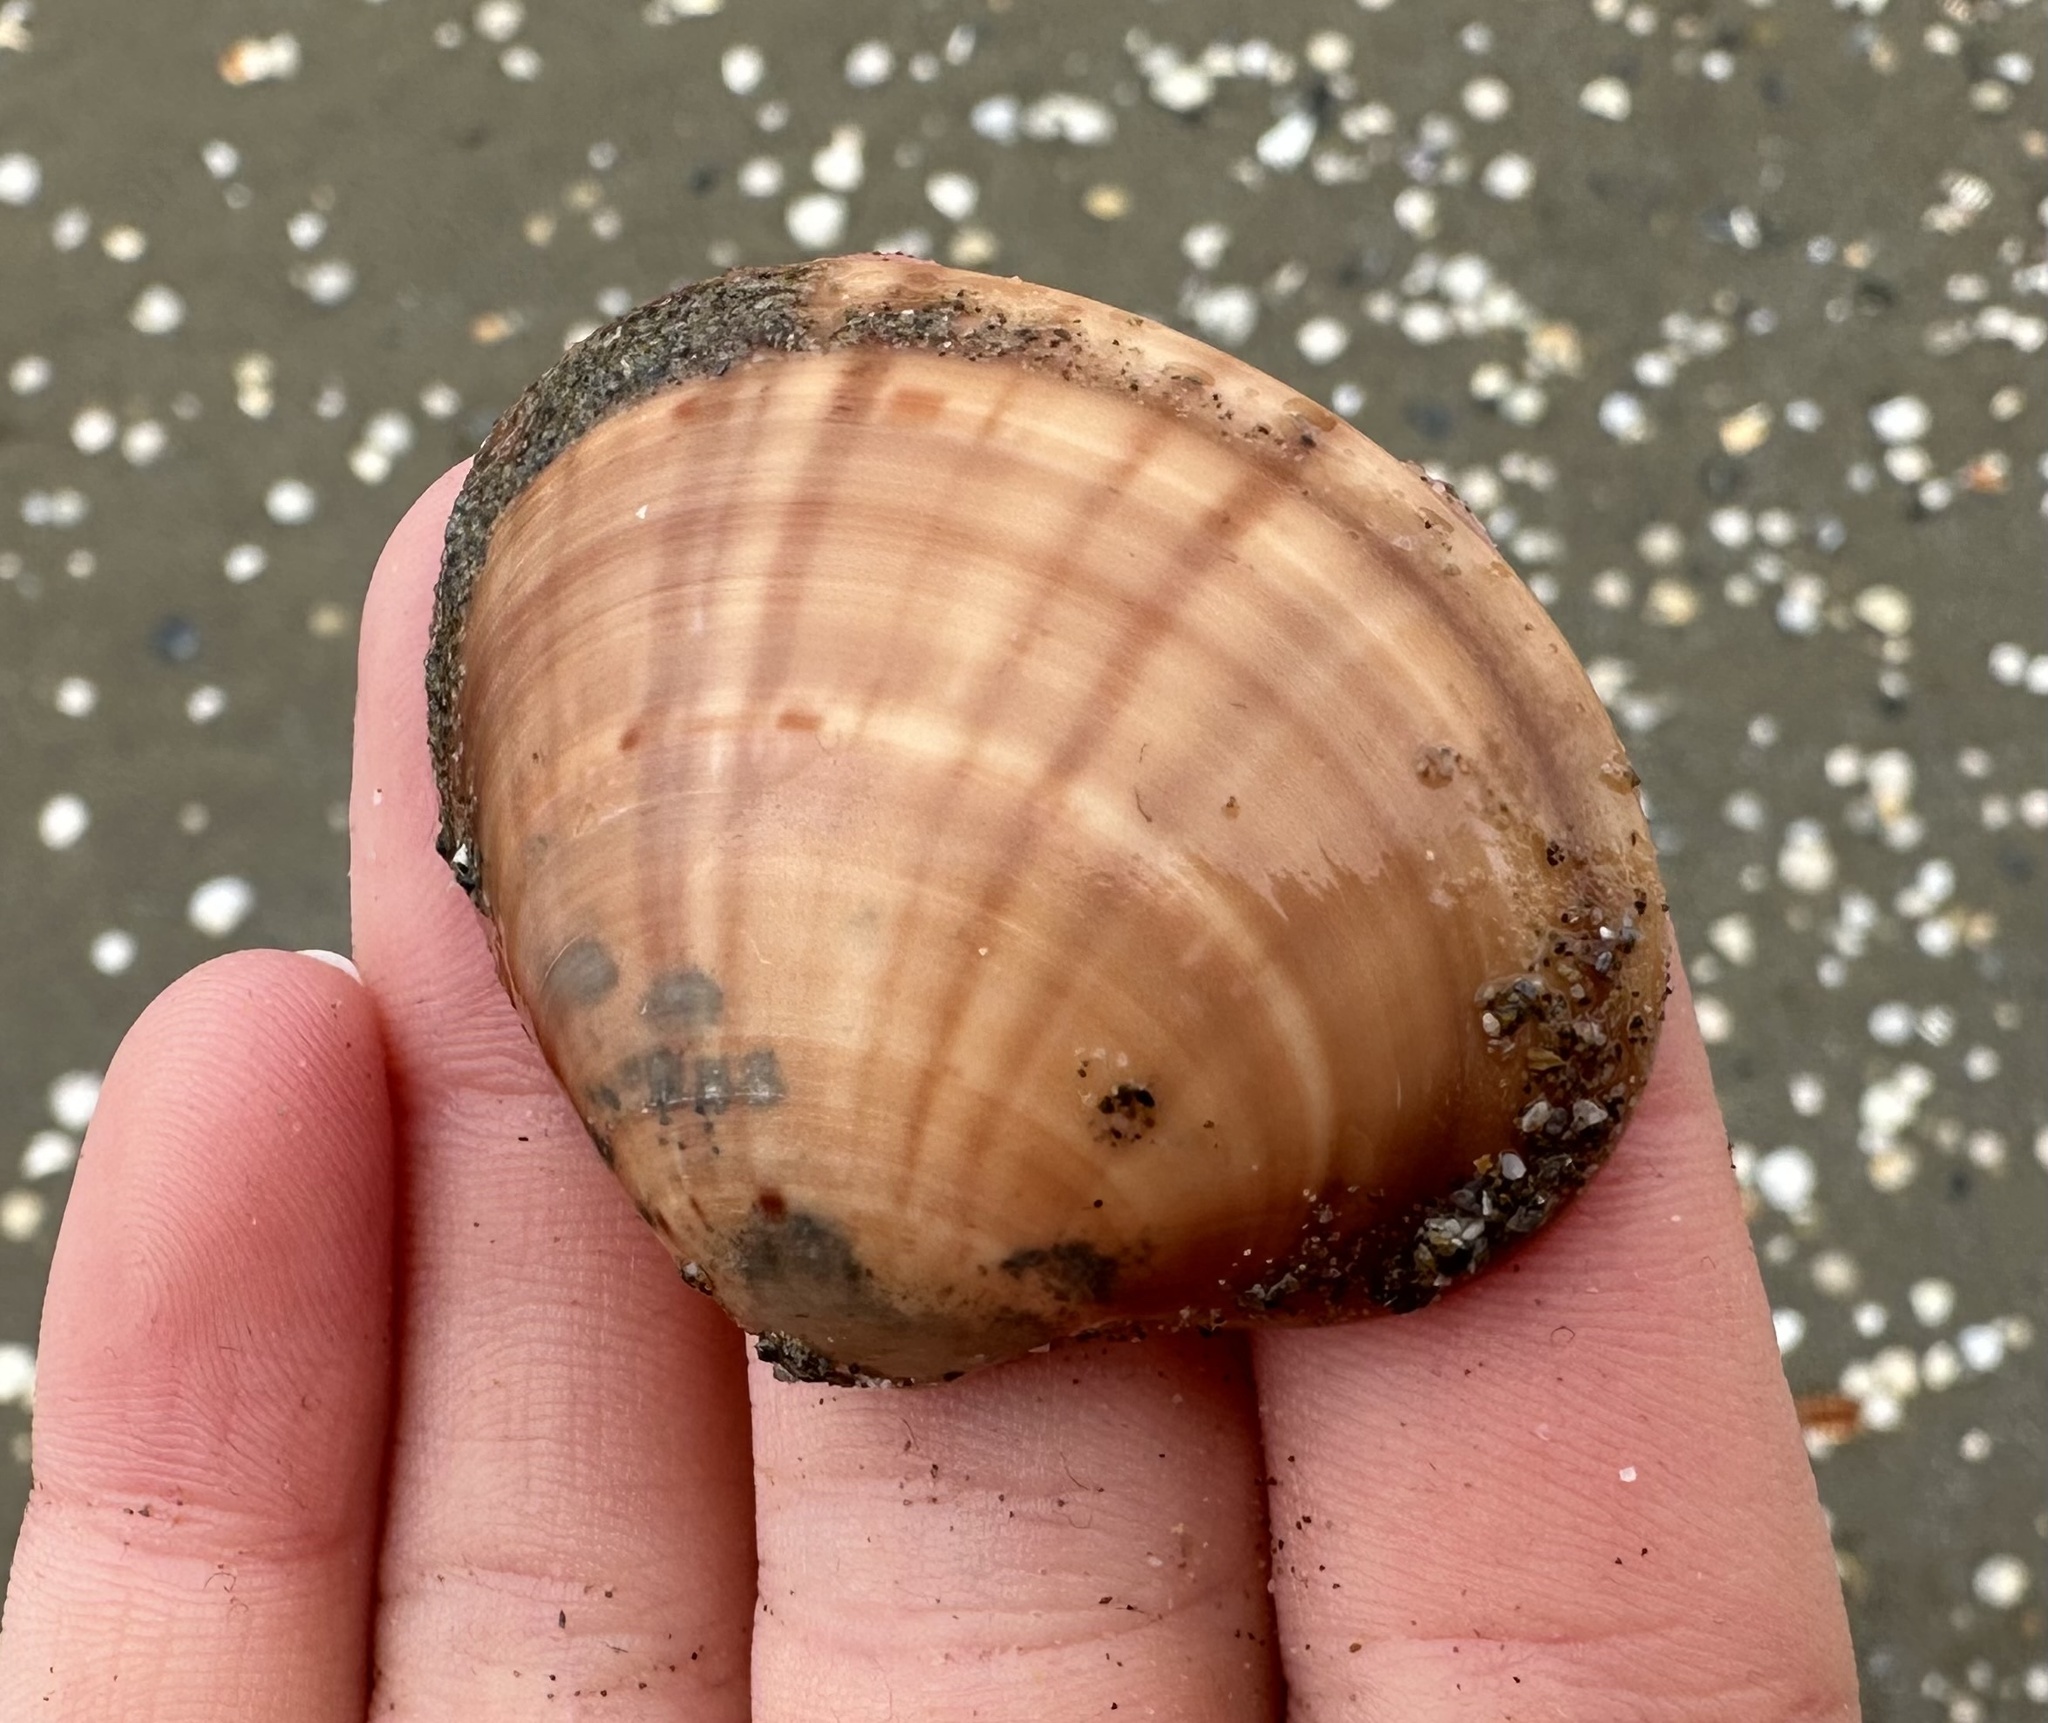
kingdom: Animalia
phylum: Mollusca
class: Bivalvia
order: Venerida
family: Veneridae
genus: Callista
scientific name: Callista chione
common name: Brown venus
